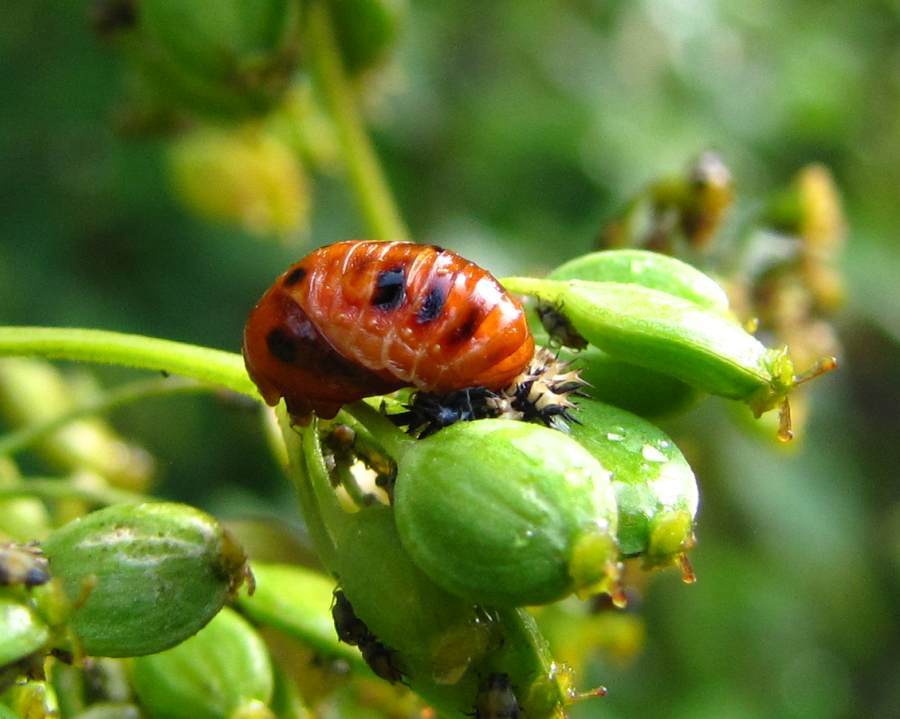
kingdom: Animalia
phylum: Arthropoda
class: Insecta
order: Coleoptera
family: Coccinellidae
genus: Harmonia
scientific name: Harmonia axyridis
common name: Harlequin ladybird
